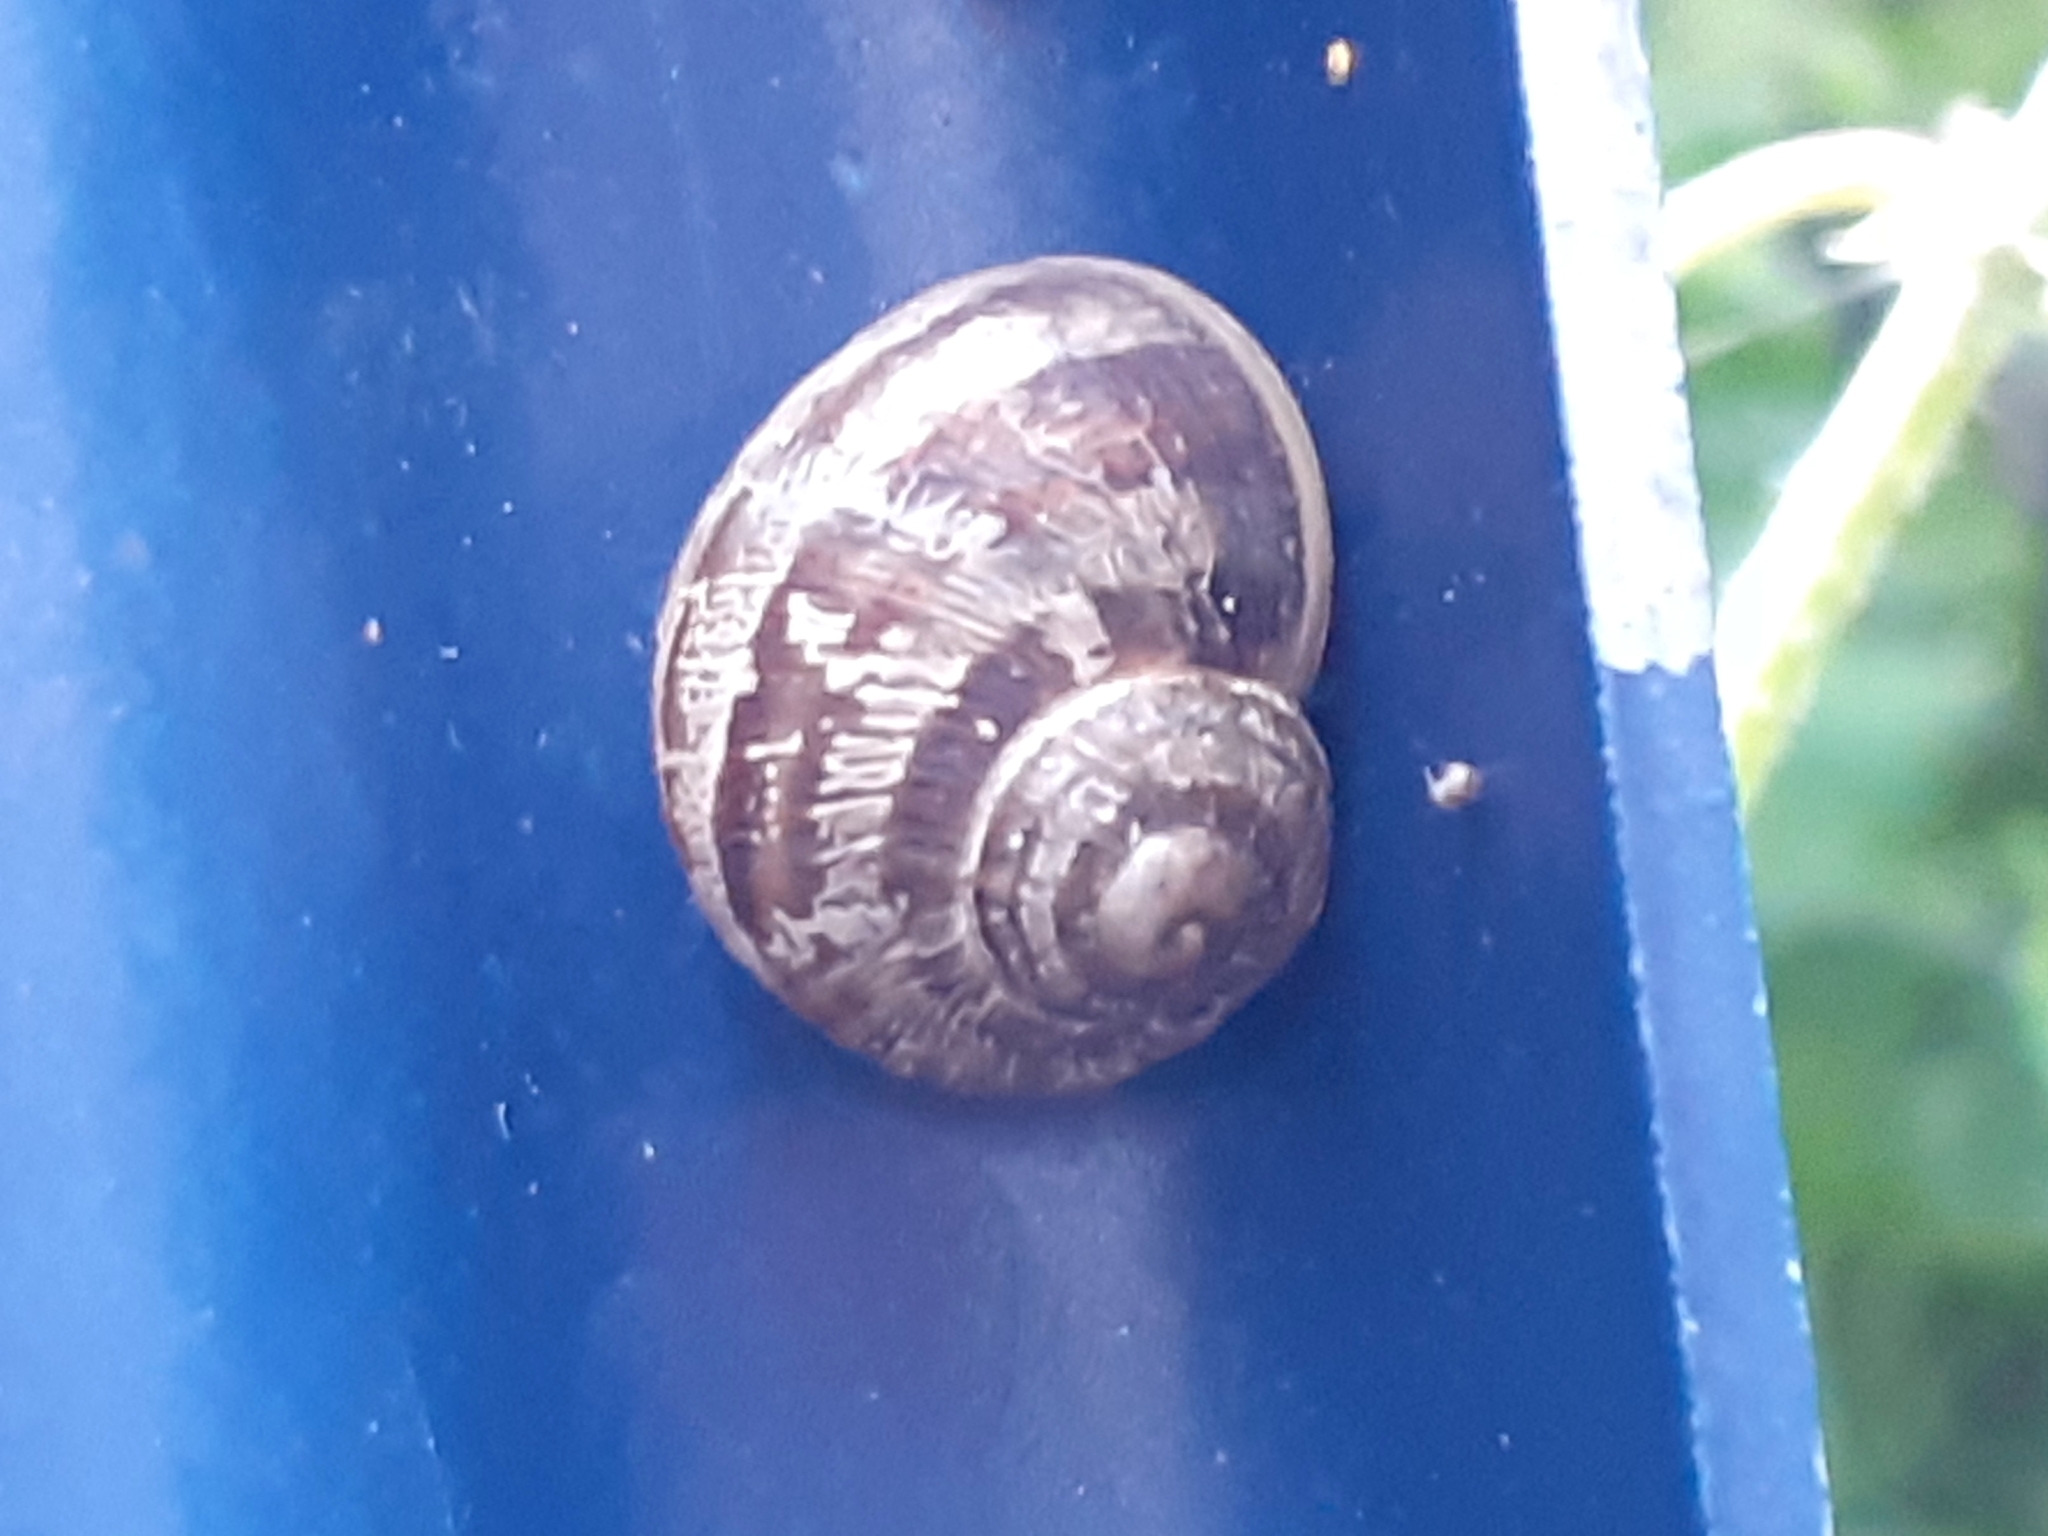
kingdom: Animalia
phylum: Mollusca
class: Gastropoda
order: Stylommatophora
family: Helicidae
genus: Cornu
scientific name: Cornu aspersum
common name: Brown garden snail
